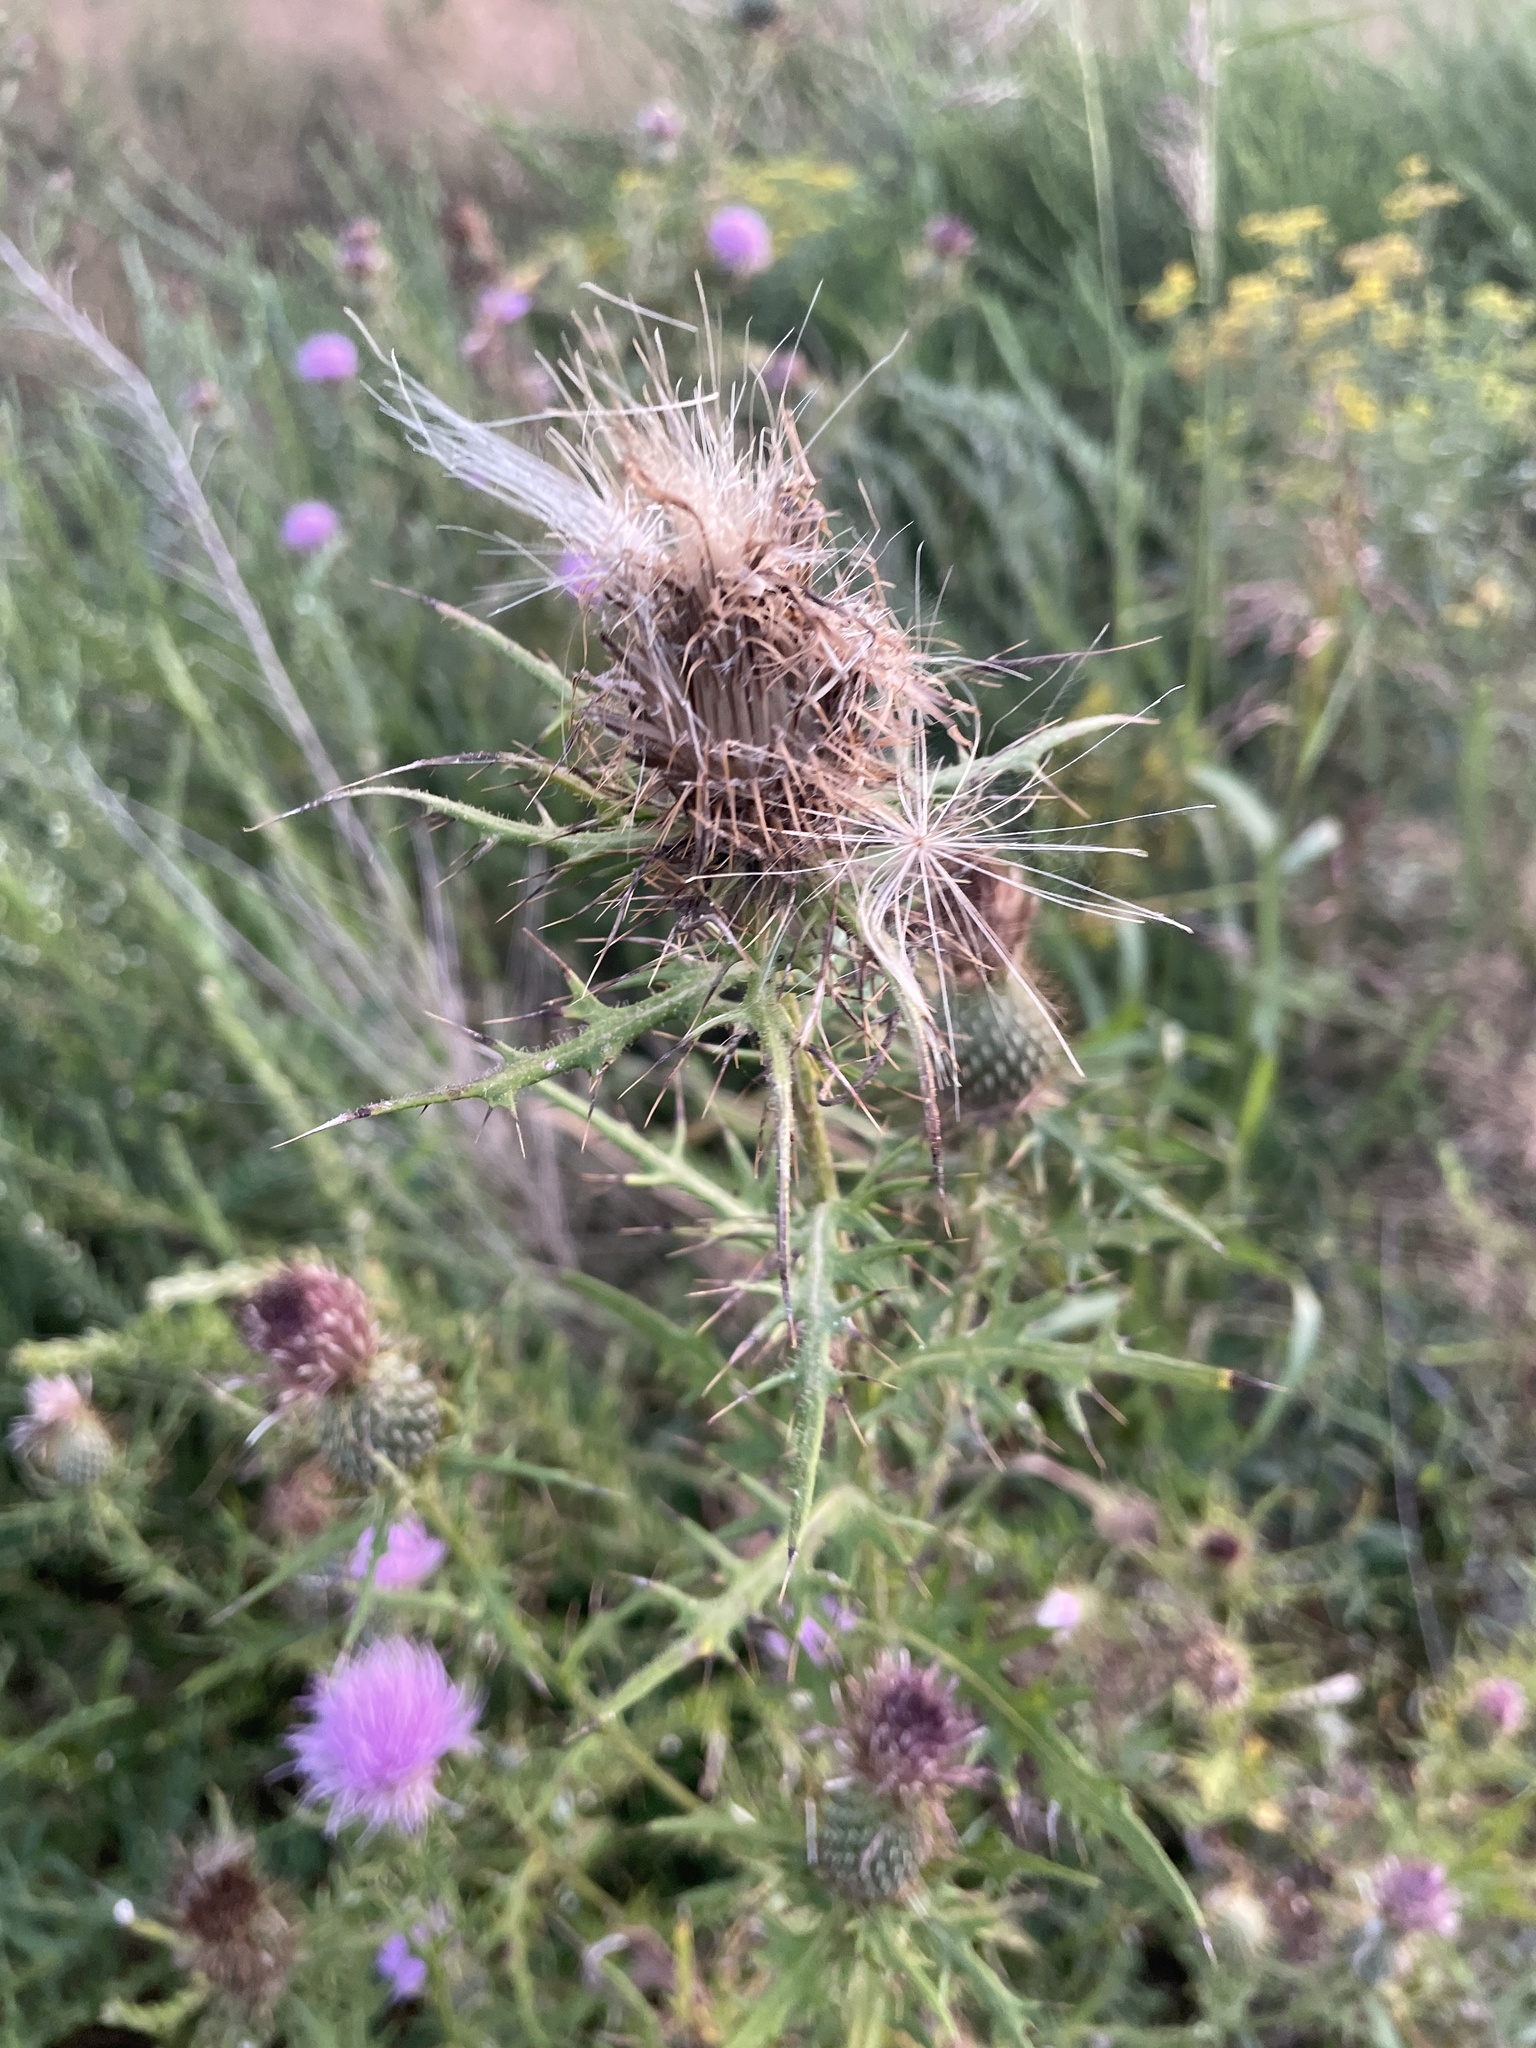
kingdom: Plantae
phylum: Tracheophyta
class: Magnoliopsida
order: Asterales
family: Asteraceae
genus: Cirsium
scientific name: Cirsium discolor
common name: Field thistle
